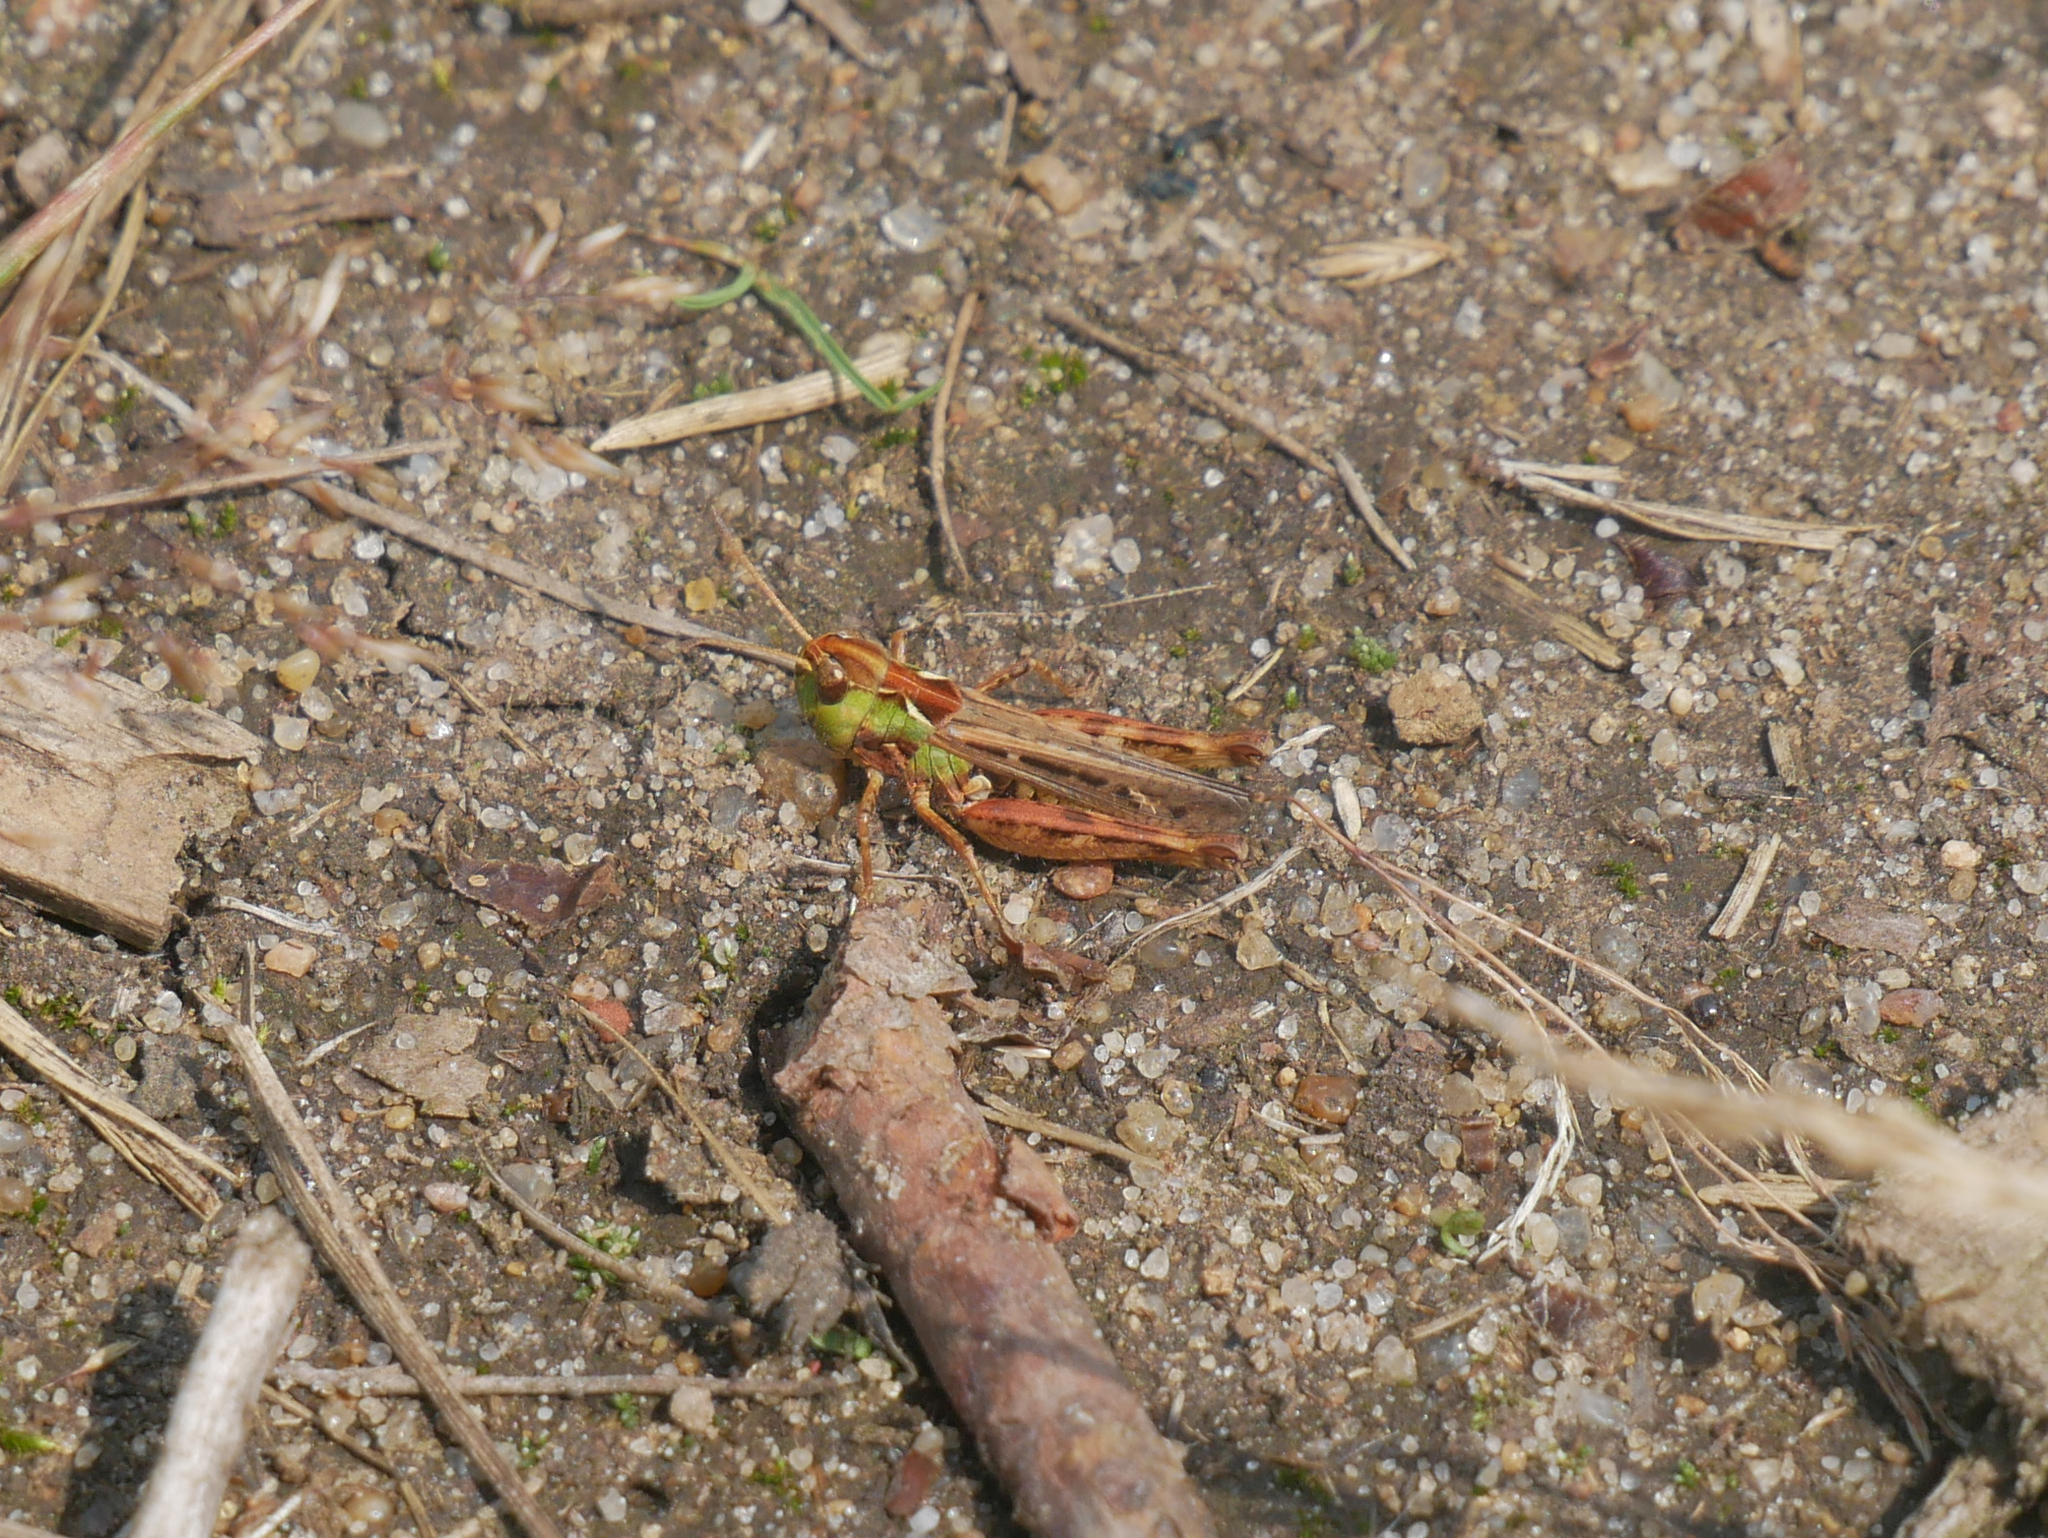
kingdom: Animalia
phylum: Arthropoda
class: Insecta
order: Orthoptera
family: Acrididae
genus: Myrmeleotettix
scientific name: Myrmeleotettix maculatus
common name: Mottled grasshopper
